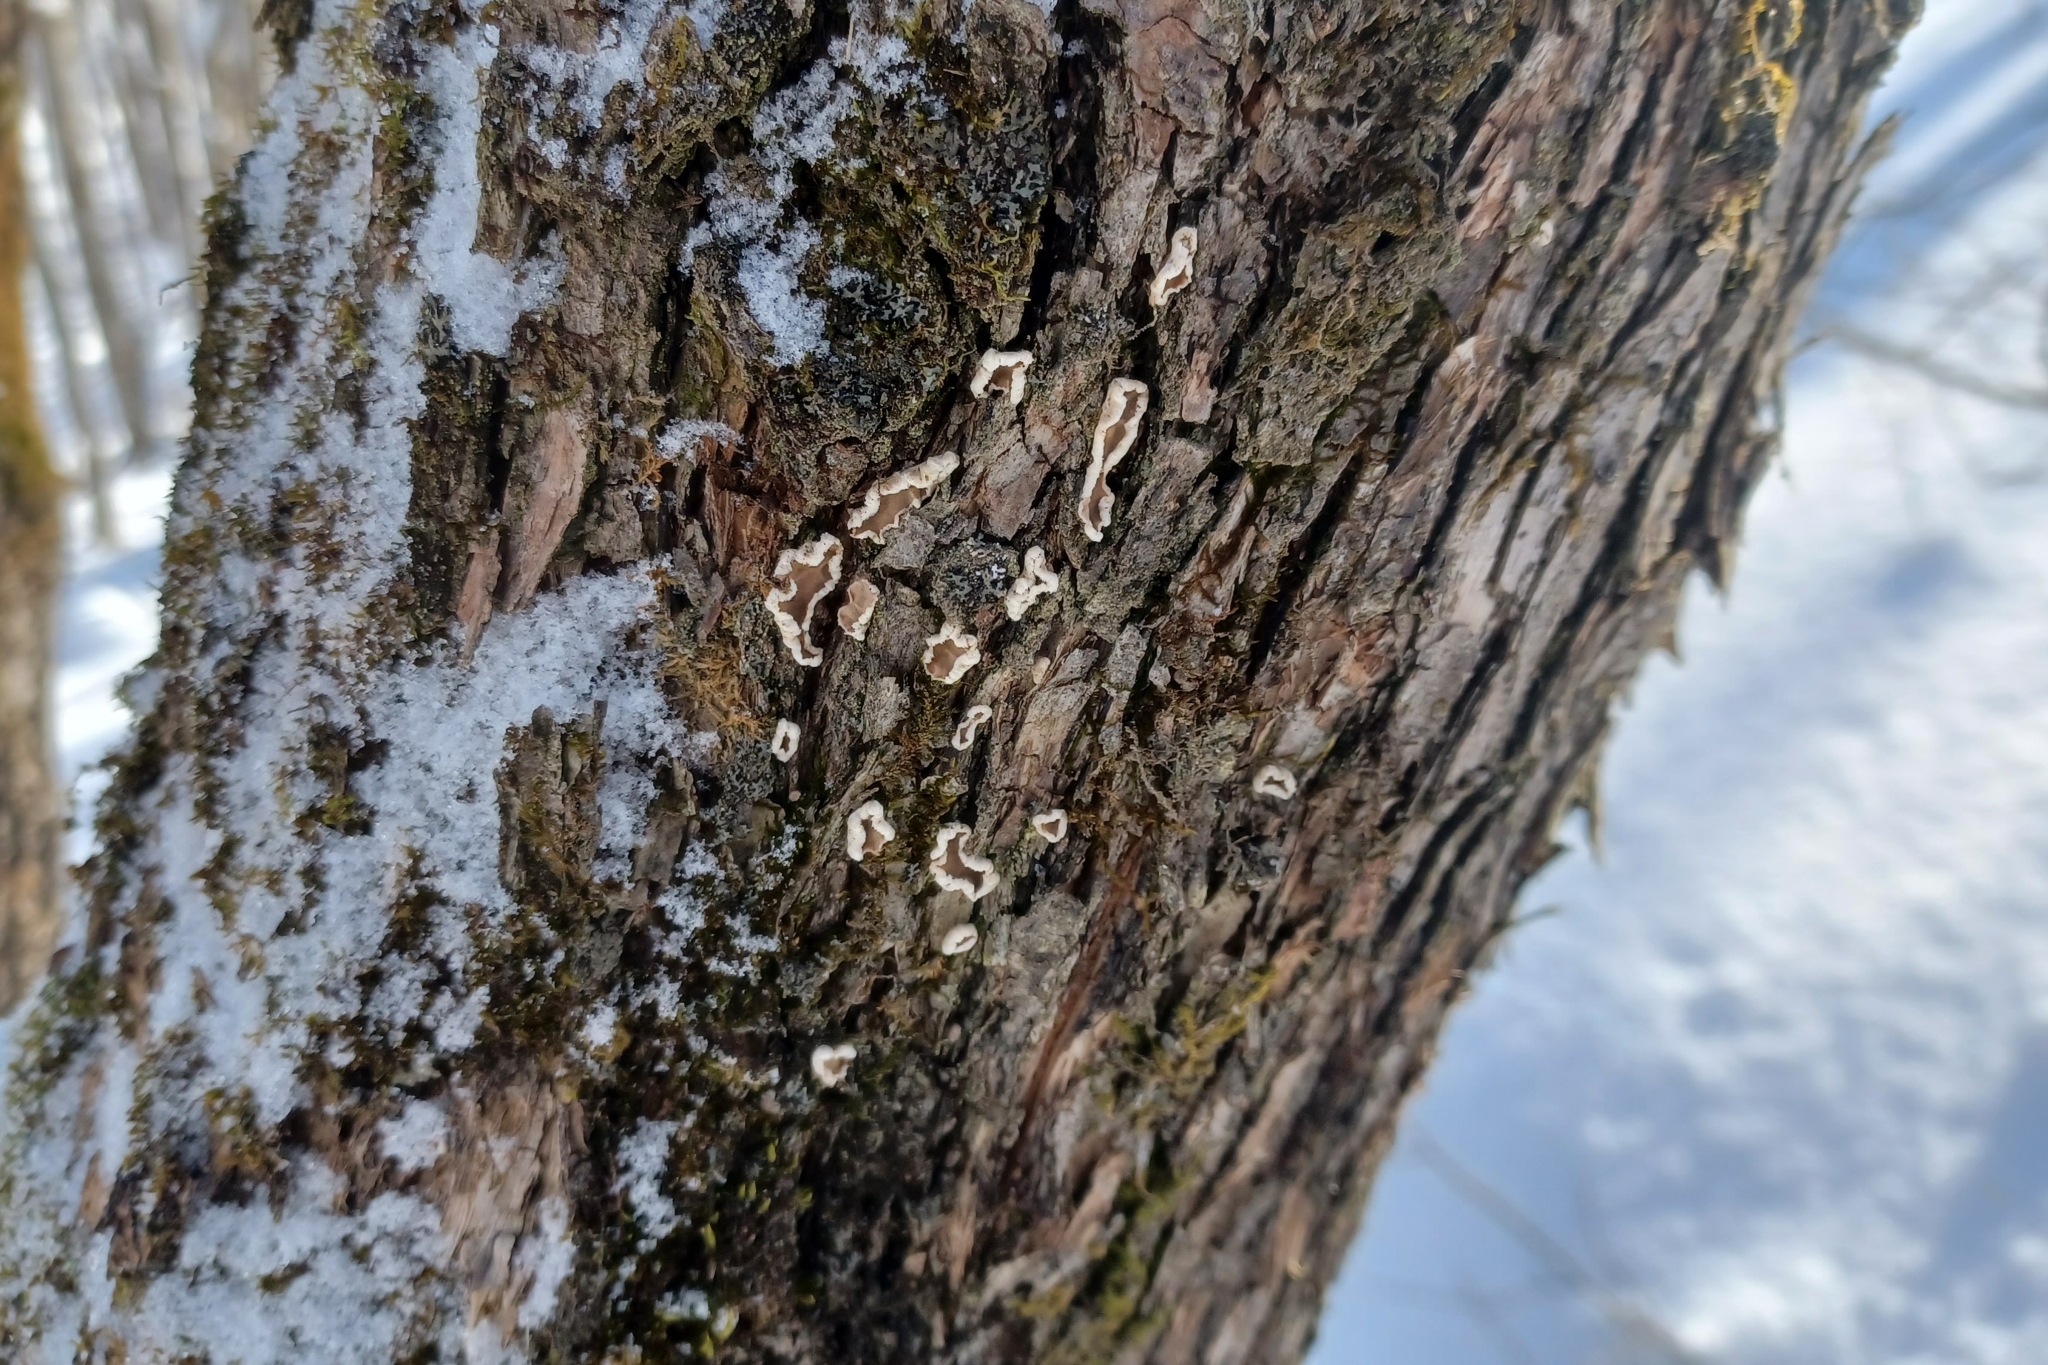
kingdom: Fungi
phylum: Basidiomycota
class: Agaricomycetes
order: Russulales
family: Stereaceae
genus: Acanthophysium
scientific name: Acanthophysium oakesii
